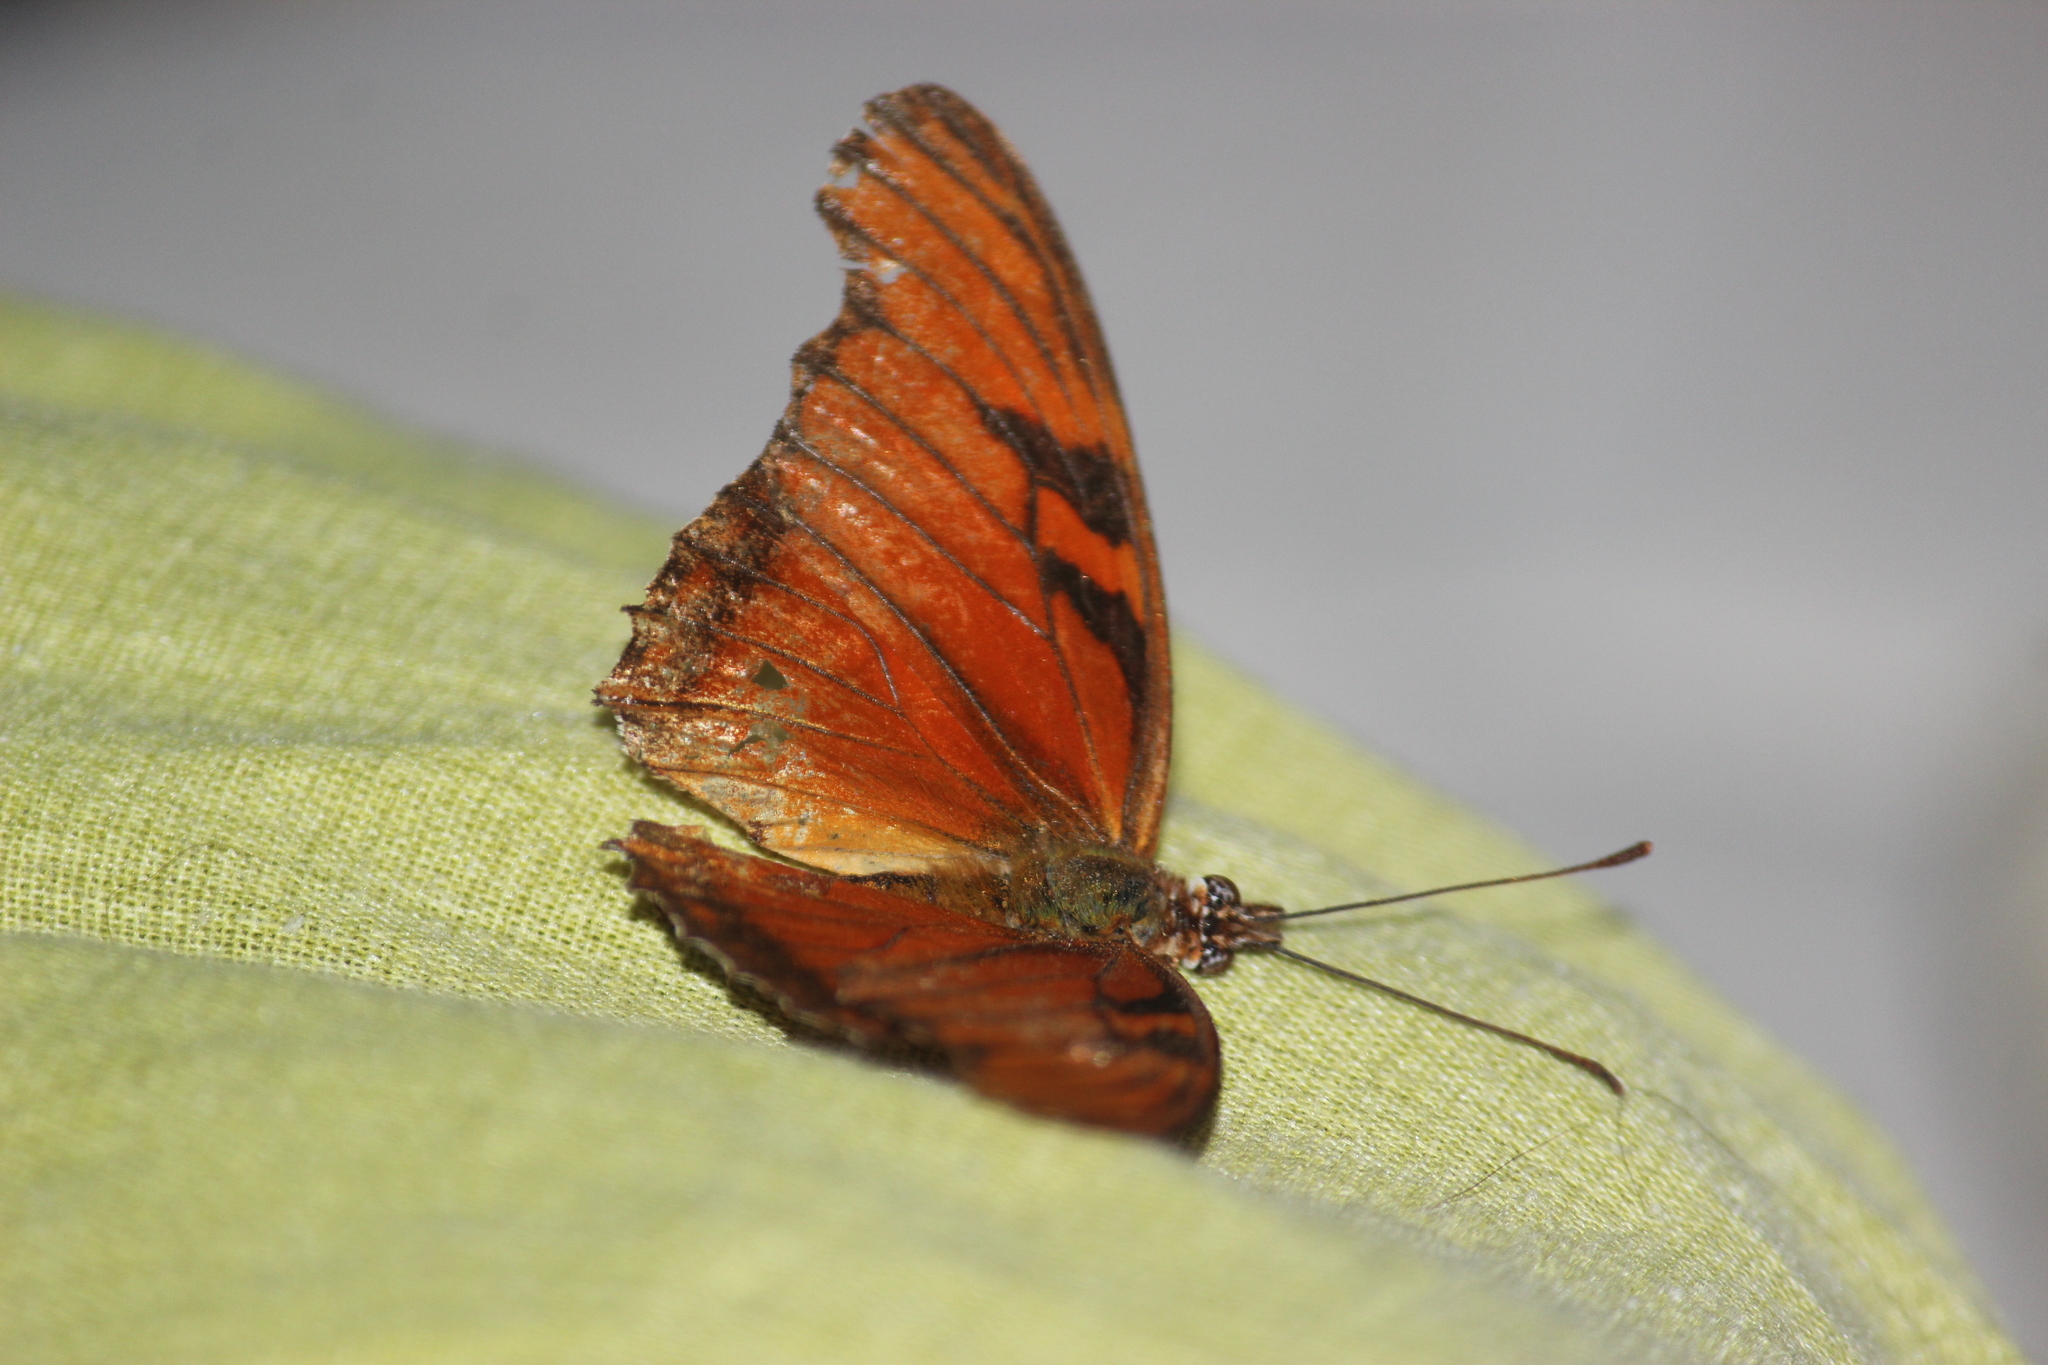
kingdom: Animalia
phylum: Arthropoda
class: Insecta
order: Lepidoptera
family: Nymphalidae
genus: Dione
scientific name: Dione juno
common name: Juno silverspot
